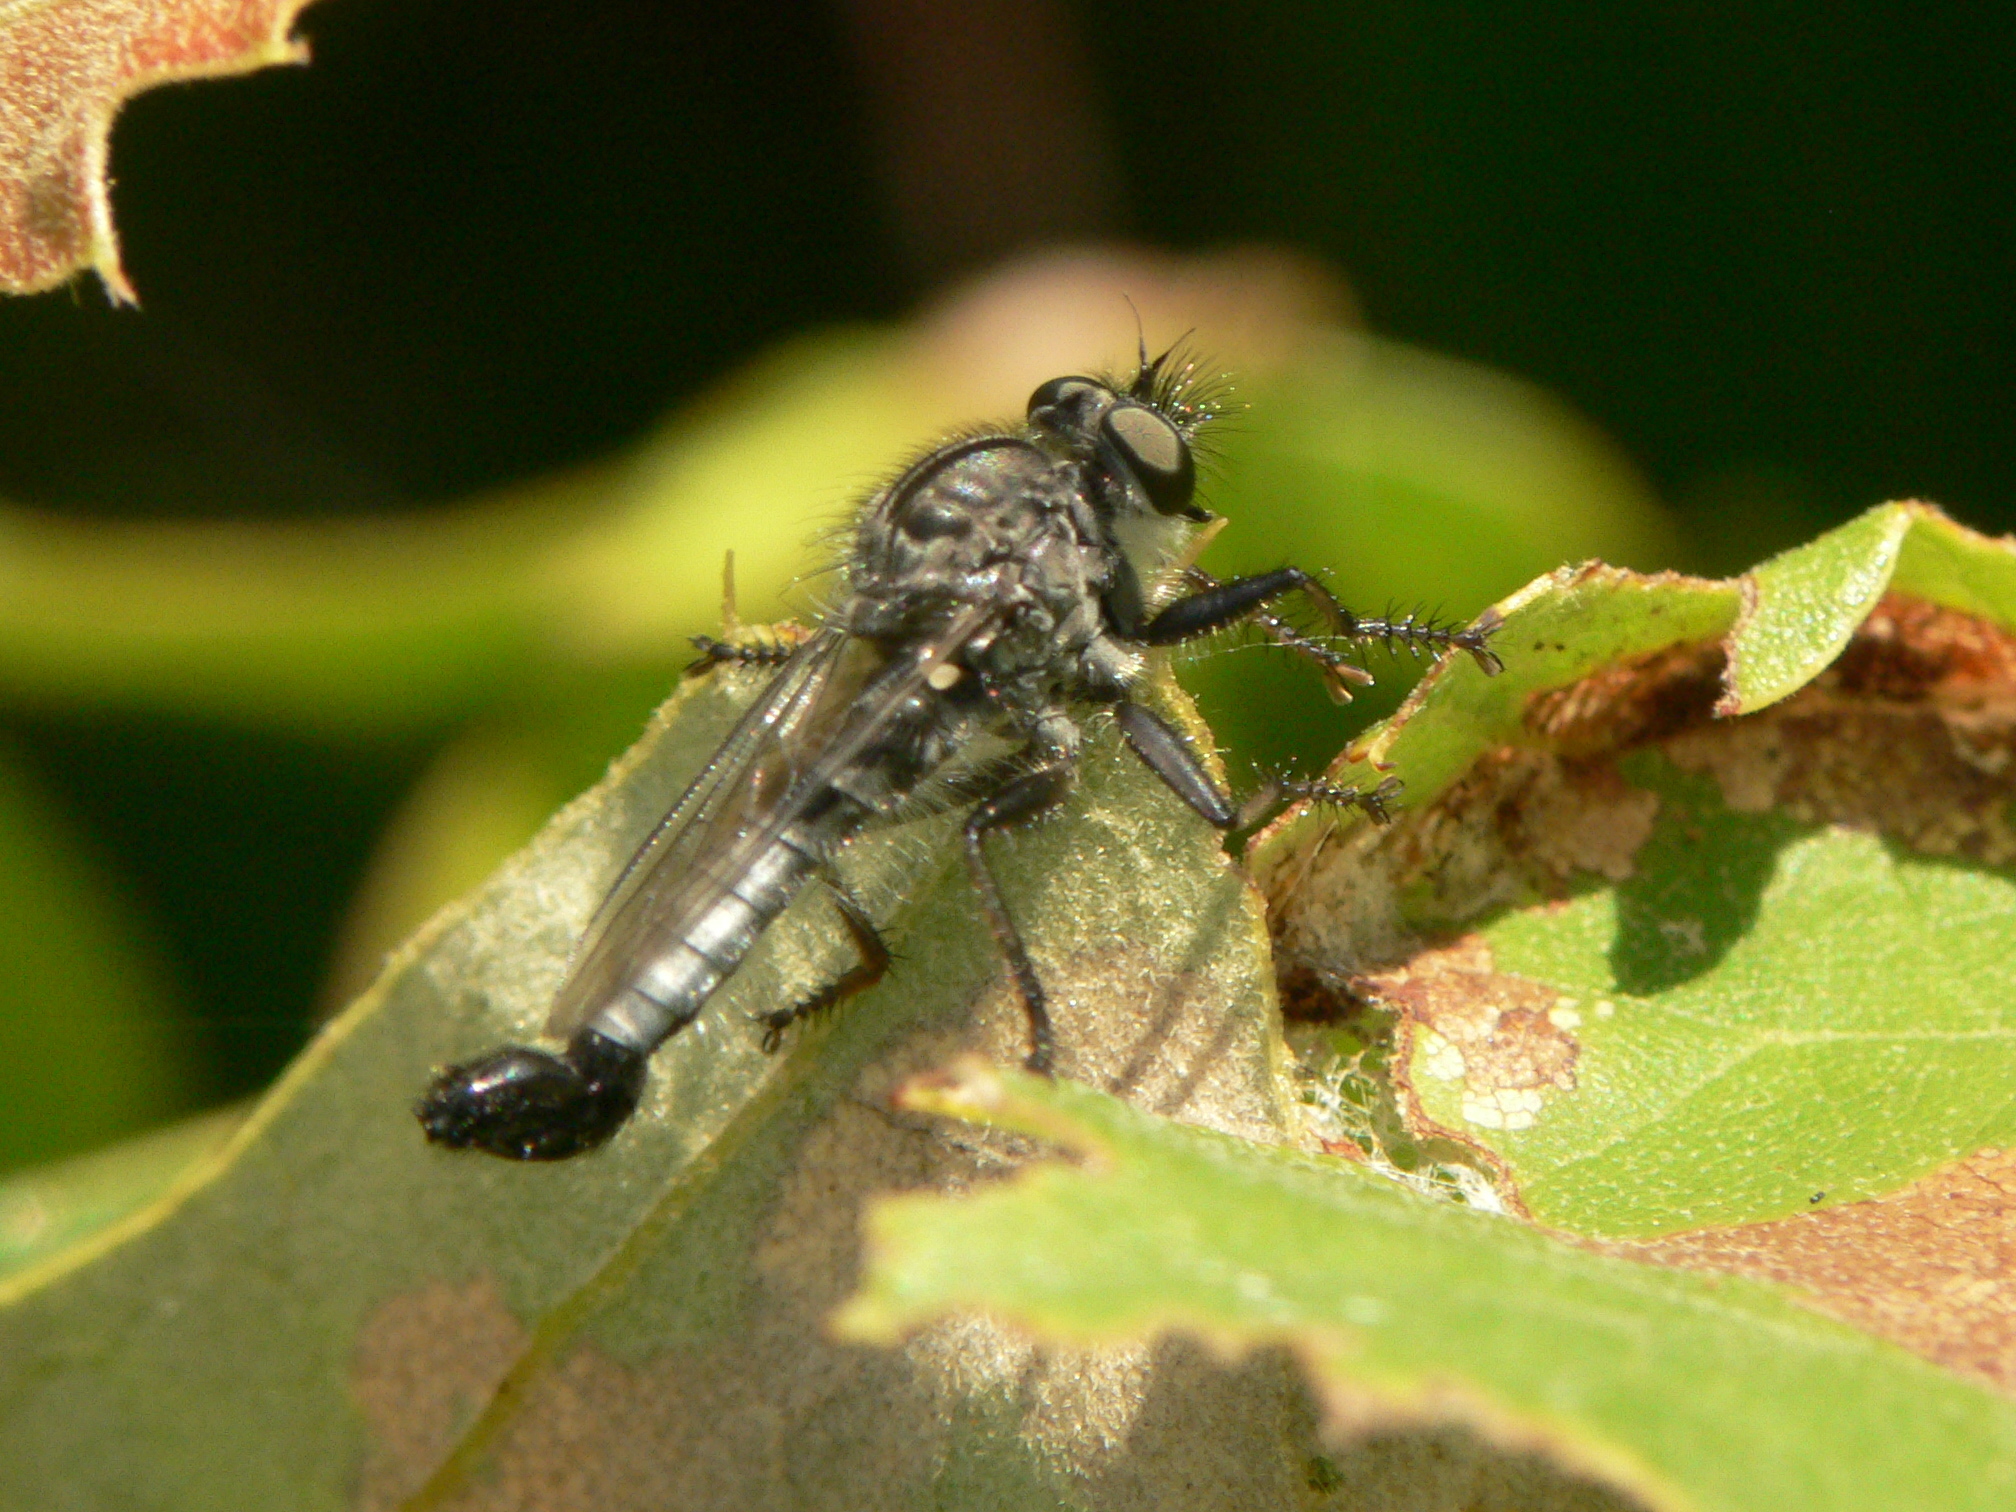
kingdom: Animalia
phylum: Arthropoda
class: Insecta
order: Diptera
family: Asilidae
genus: Efferia
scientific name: Efferia aestuans
